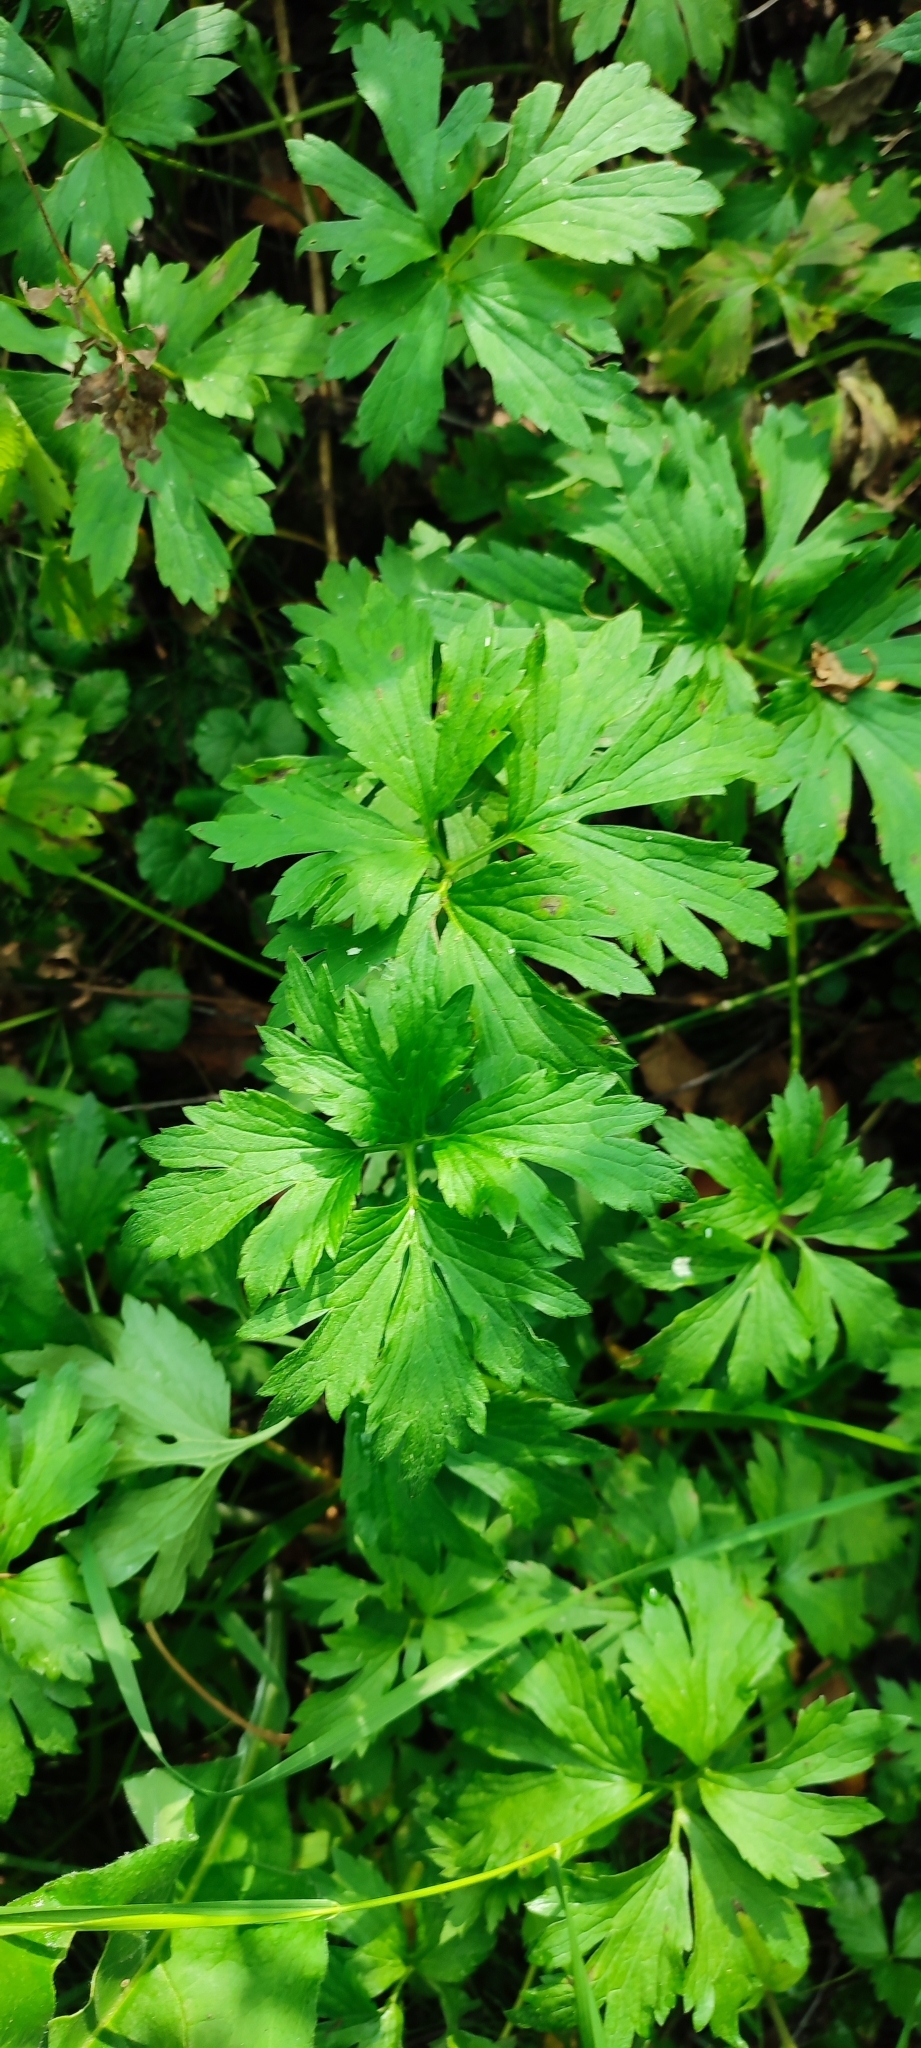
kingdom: Plantae
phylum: Tracheophyta
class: Magnoliopsida
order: Ranunculales
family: Ranunculaceae
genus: Ranunculus
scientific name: Ranunculus repens
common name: Creeping buttercup
